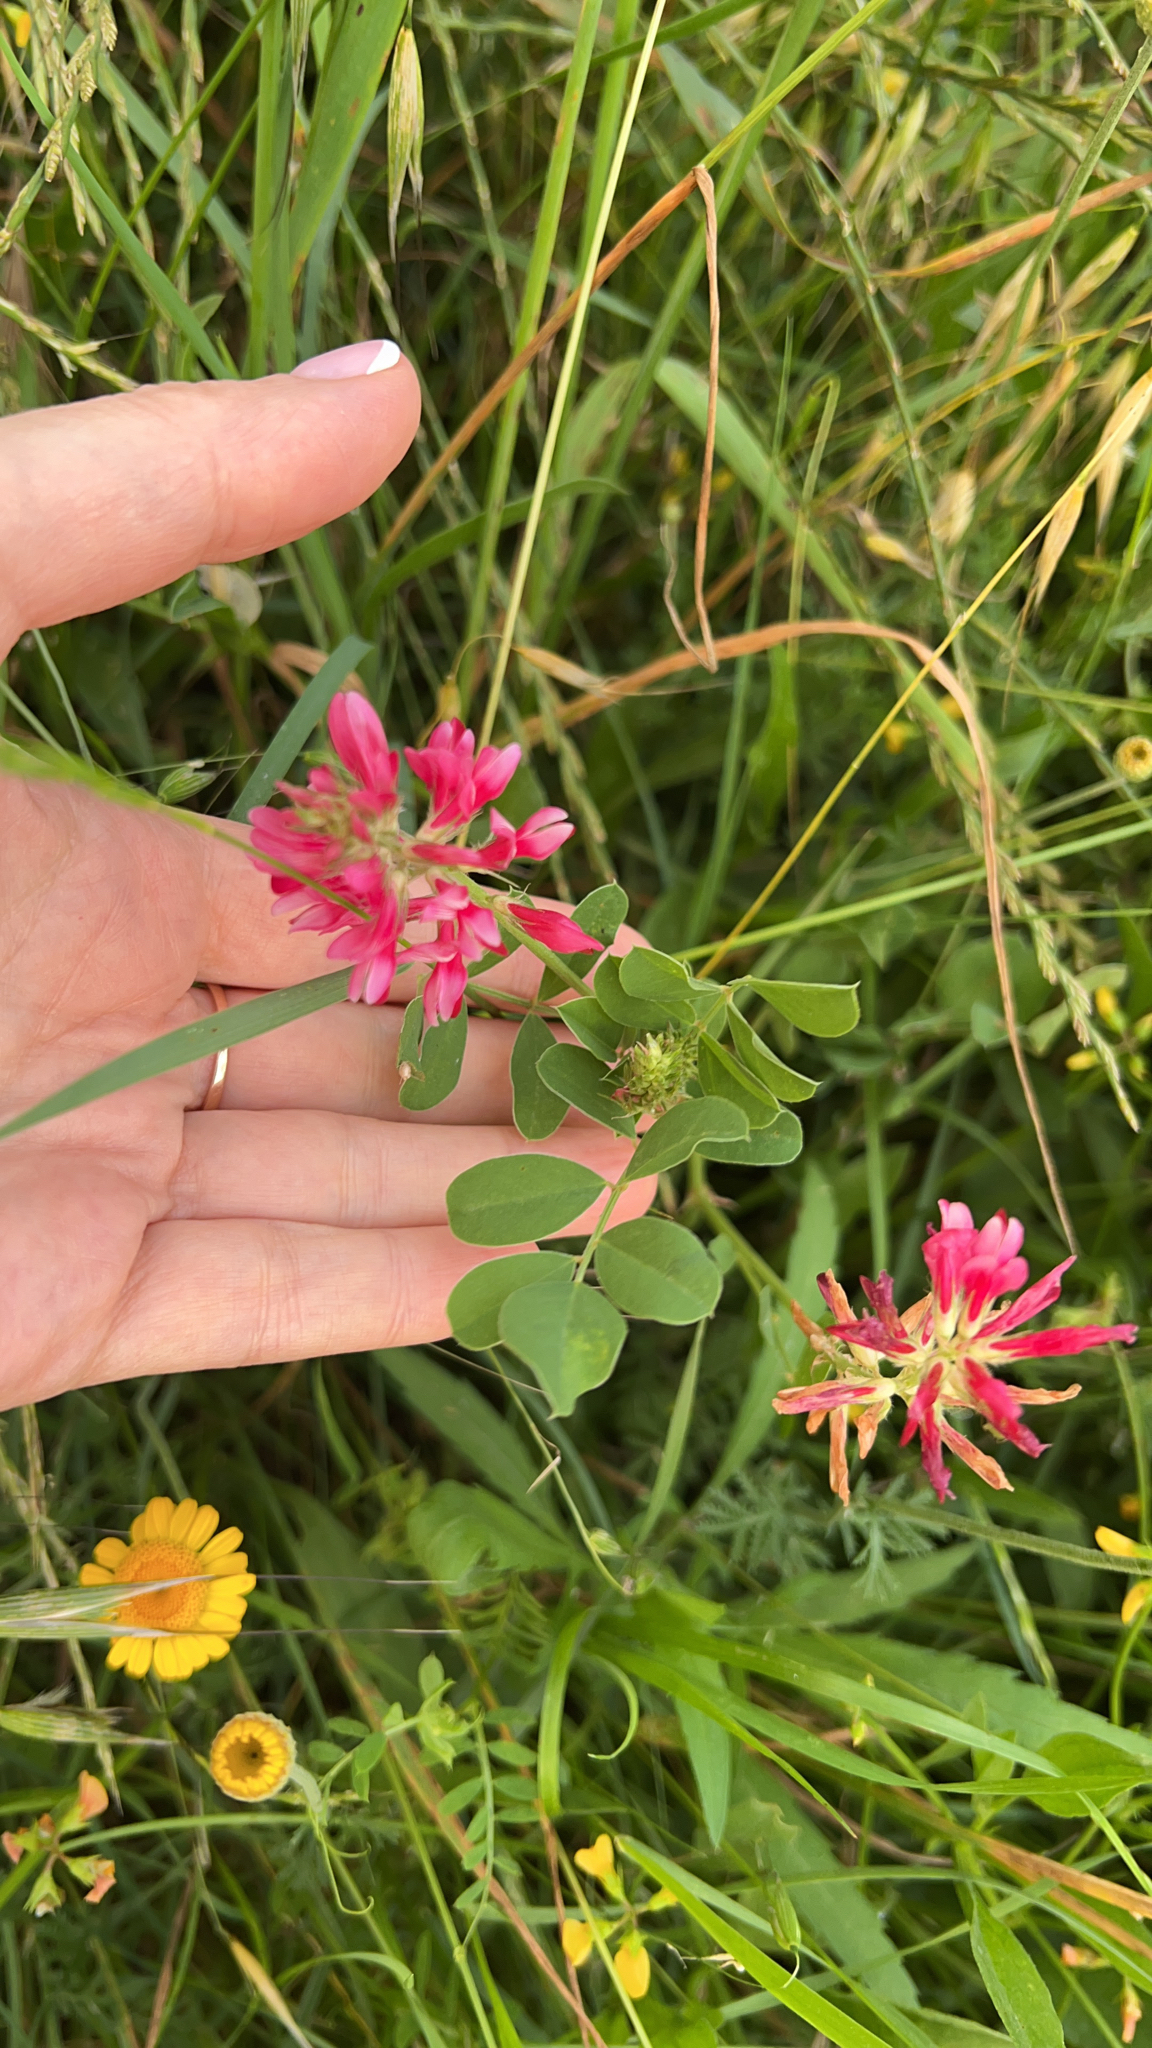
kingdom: Plantae
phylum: Tracheophyta
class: Magnoliopsida
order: Fabales
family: Fabaceae
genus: Sulla
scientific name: Sulla coronaria
